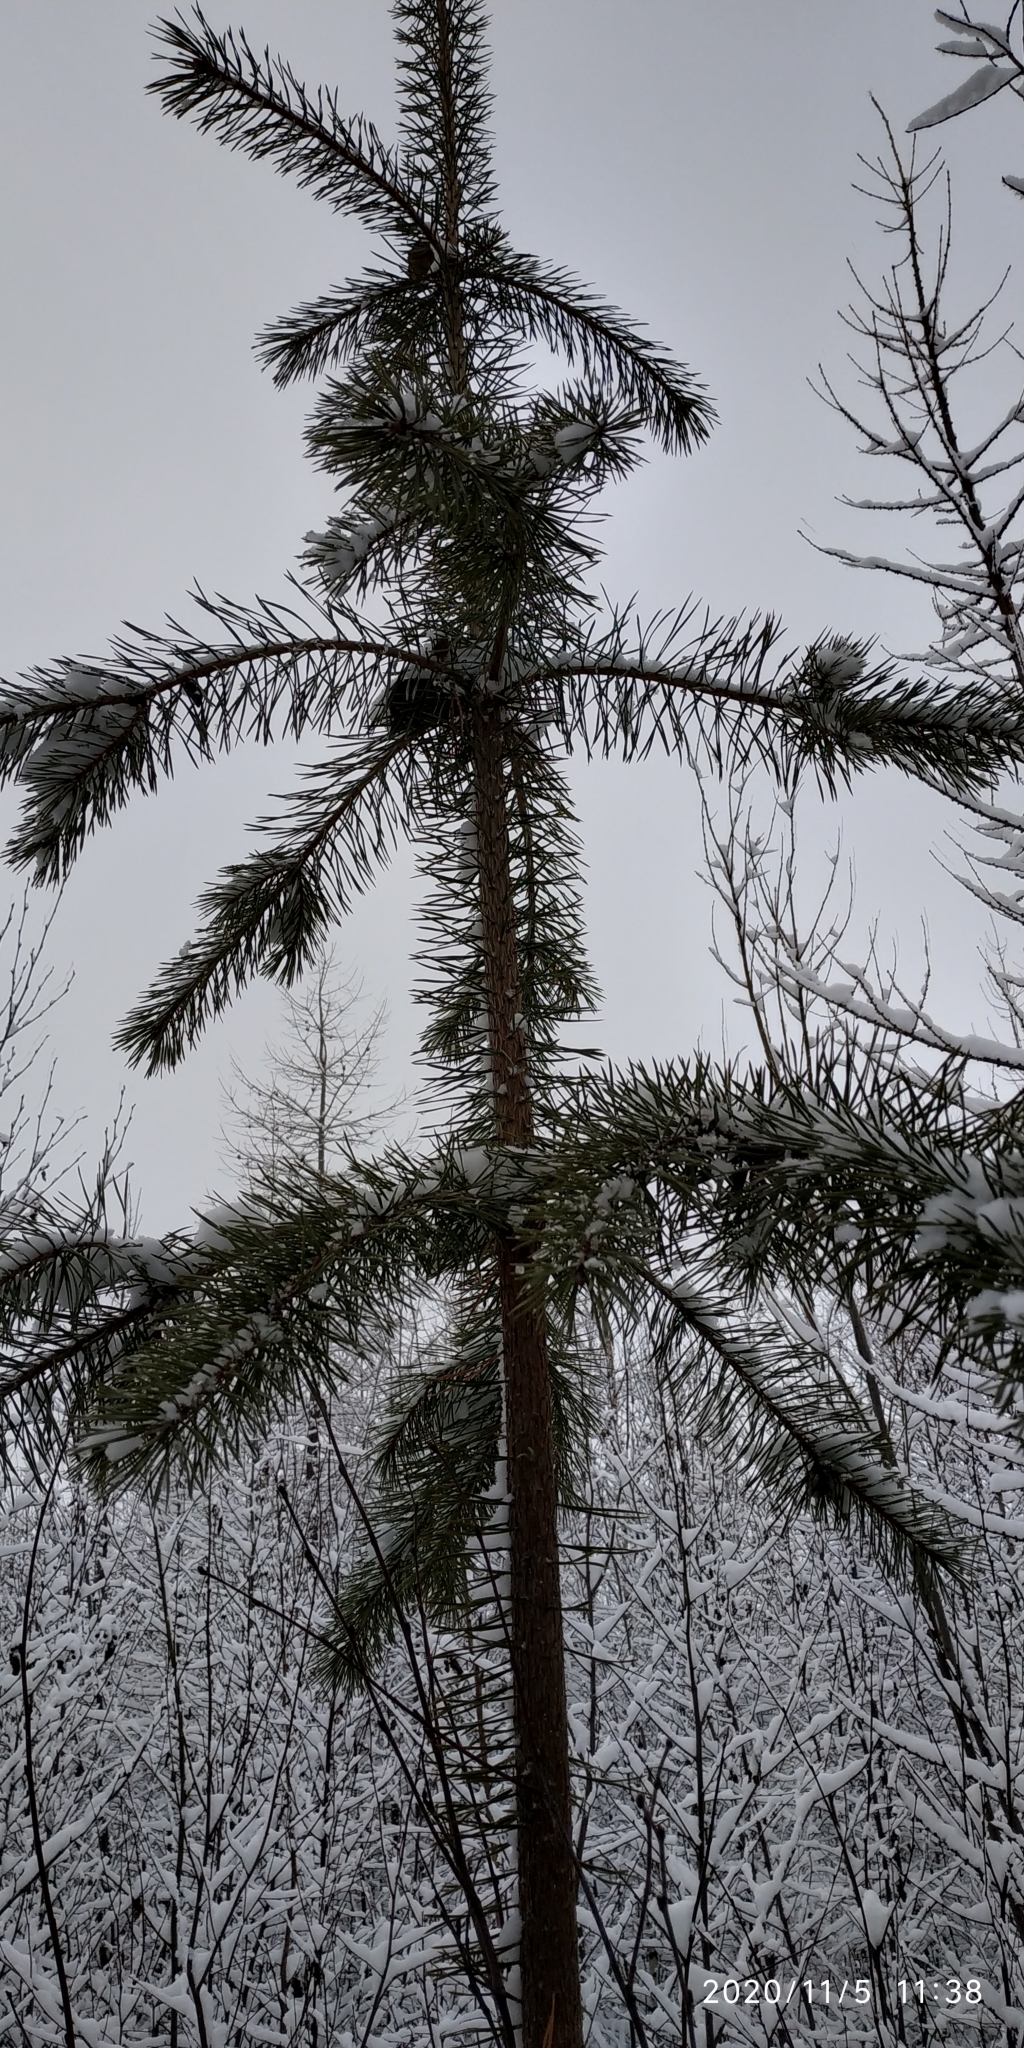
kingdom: Plantae
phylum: Tracheophyta
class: Pinopsida
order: Pinales
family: Pinaceae
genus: Pinus
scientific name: Pinus sylvestris
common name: Scots pine
